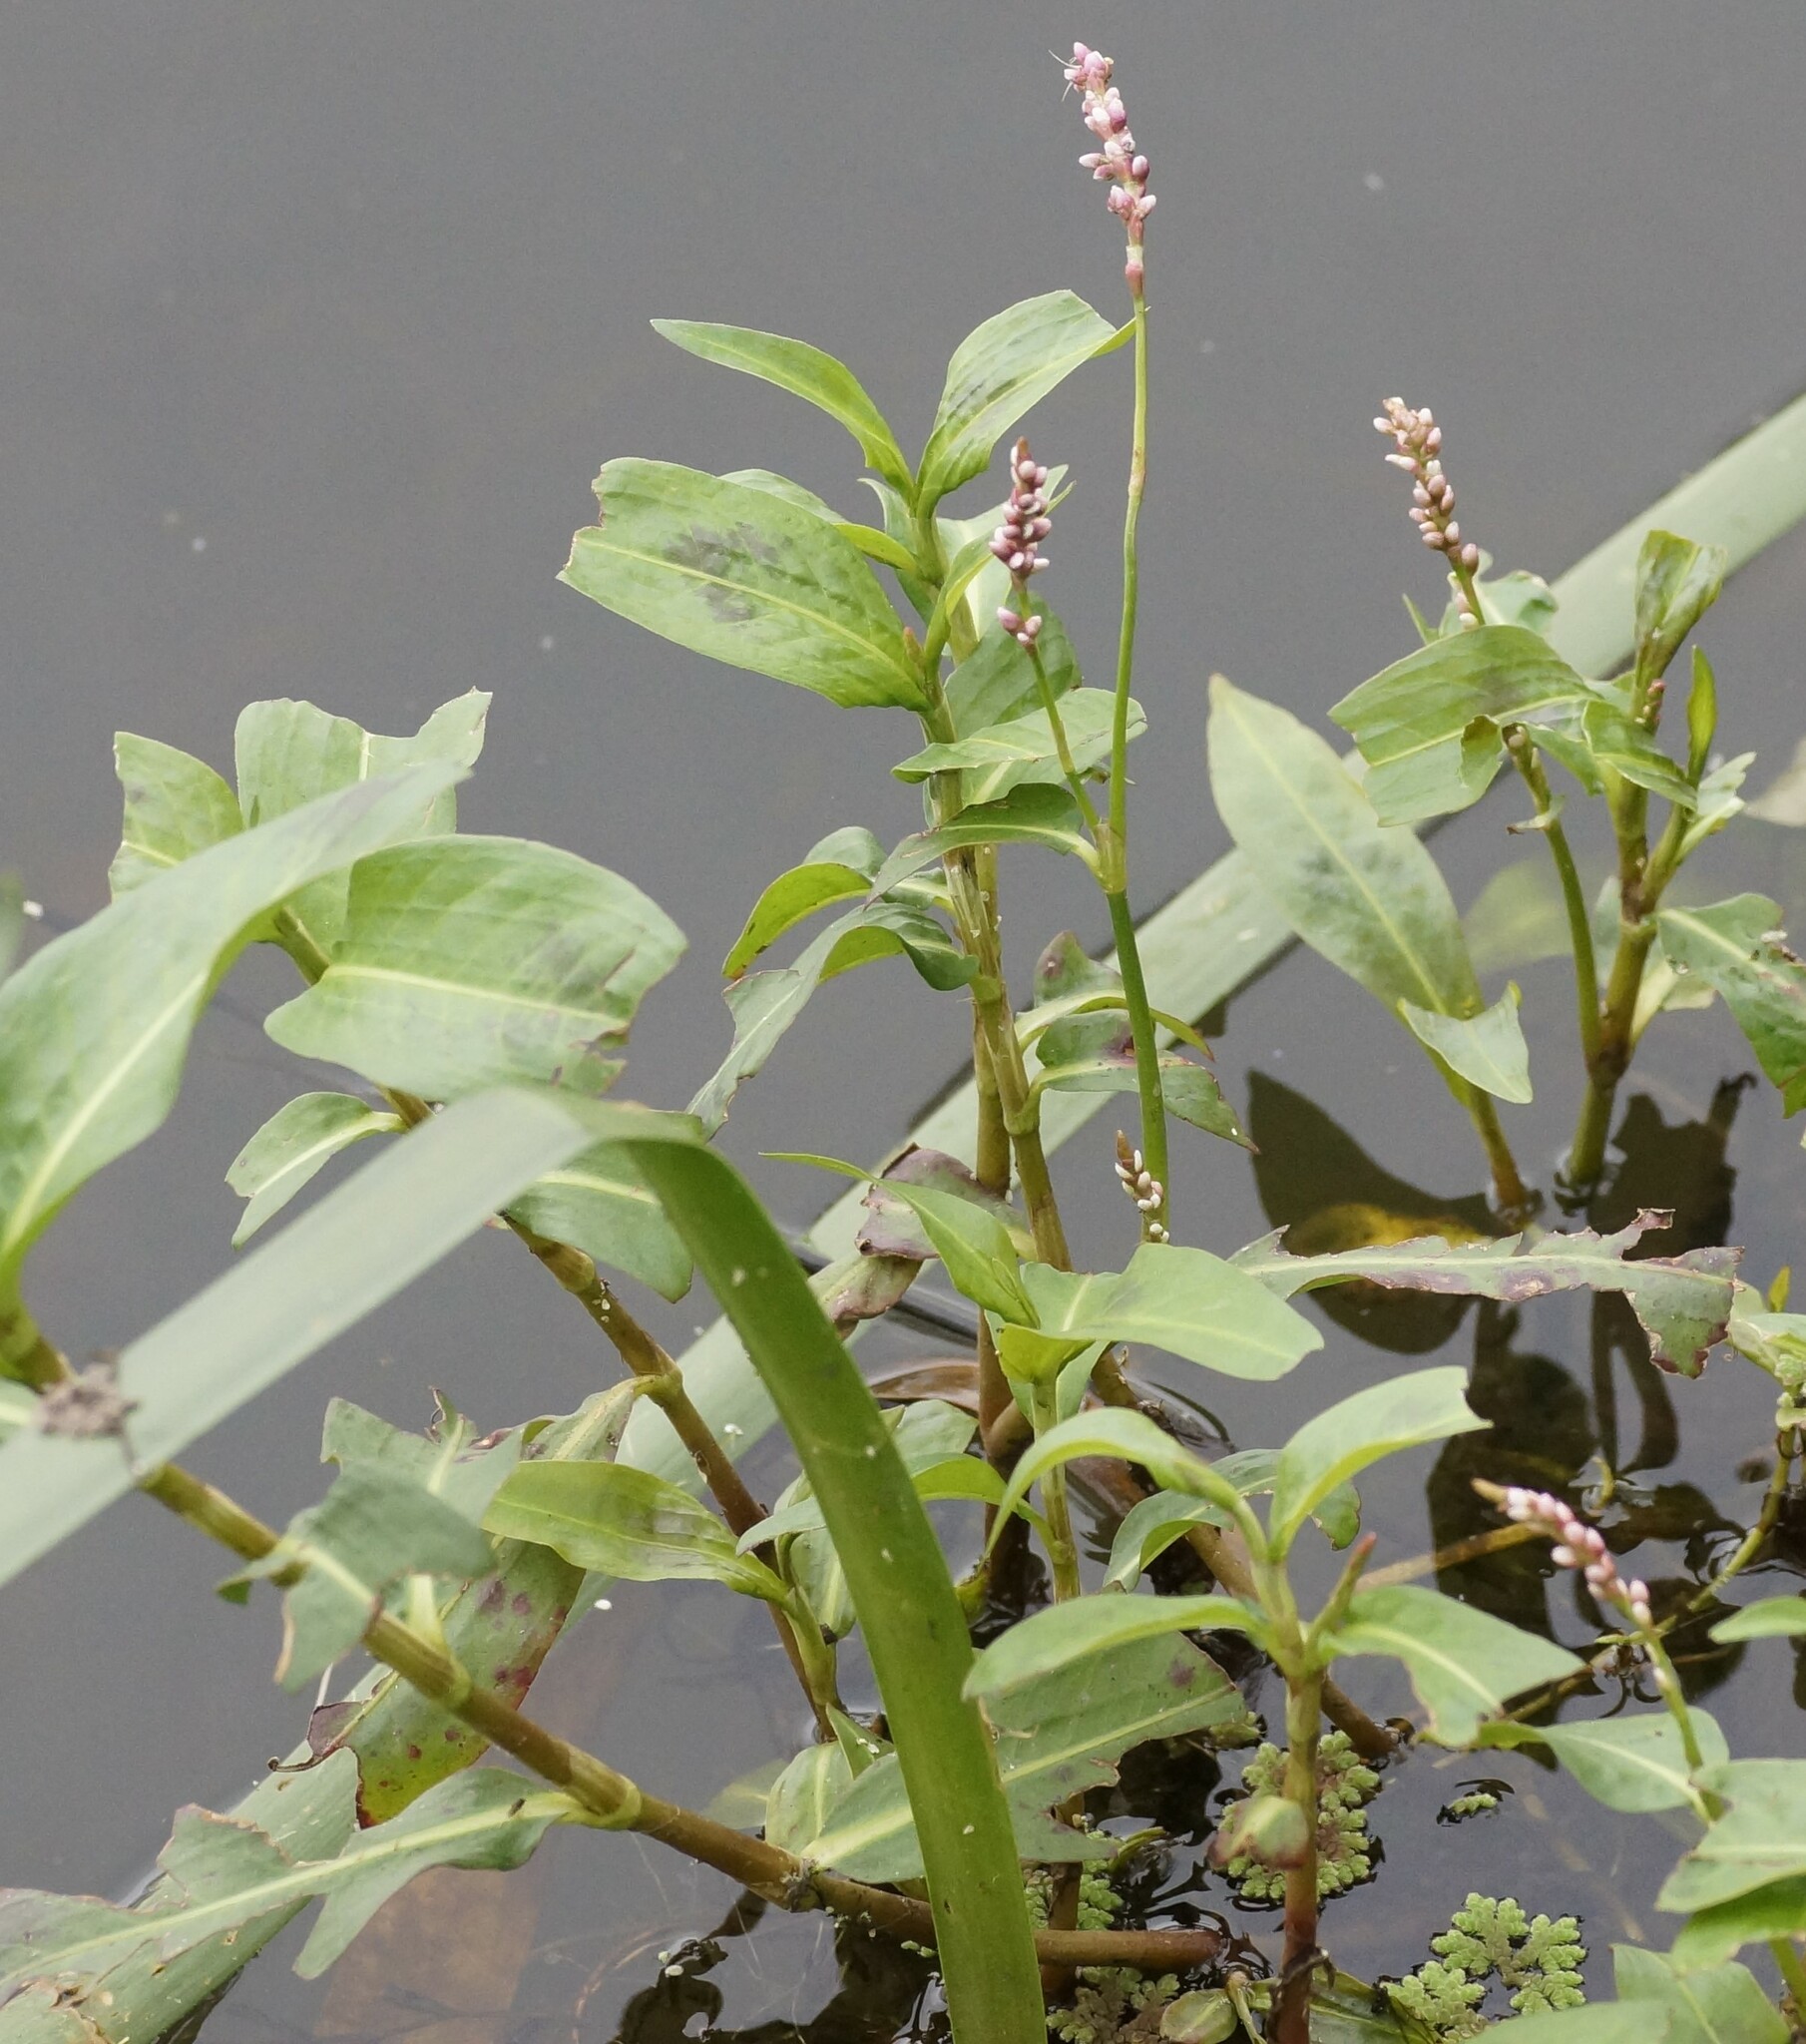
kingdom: Plantae
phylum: Tracheophyta
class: Magnoliopsida
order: Caryophyllales
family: Polygonaceae
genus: Persicaria
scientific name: Persicaria decipiens
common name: Willow-weed
